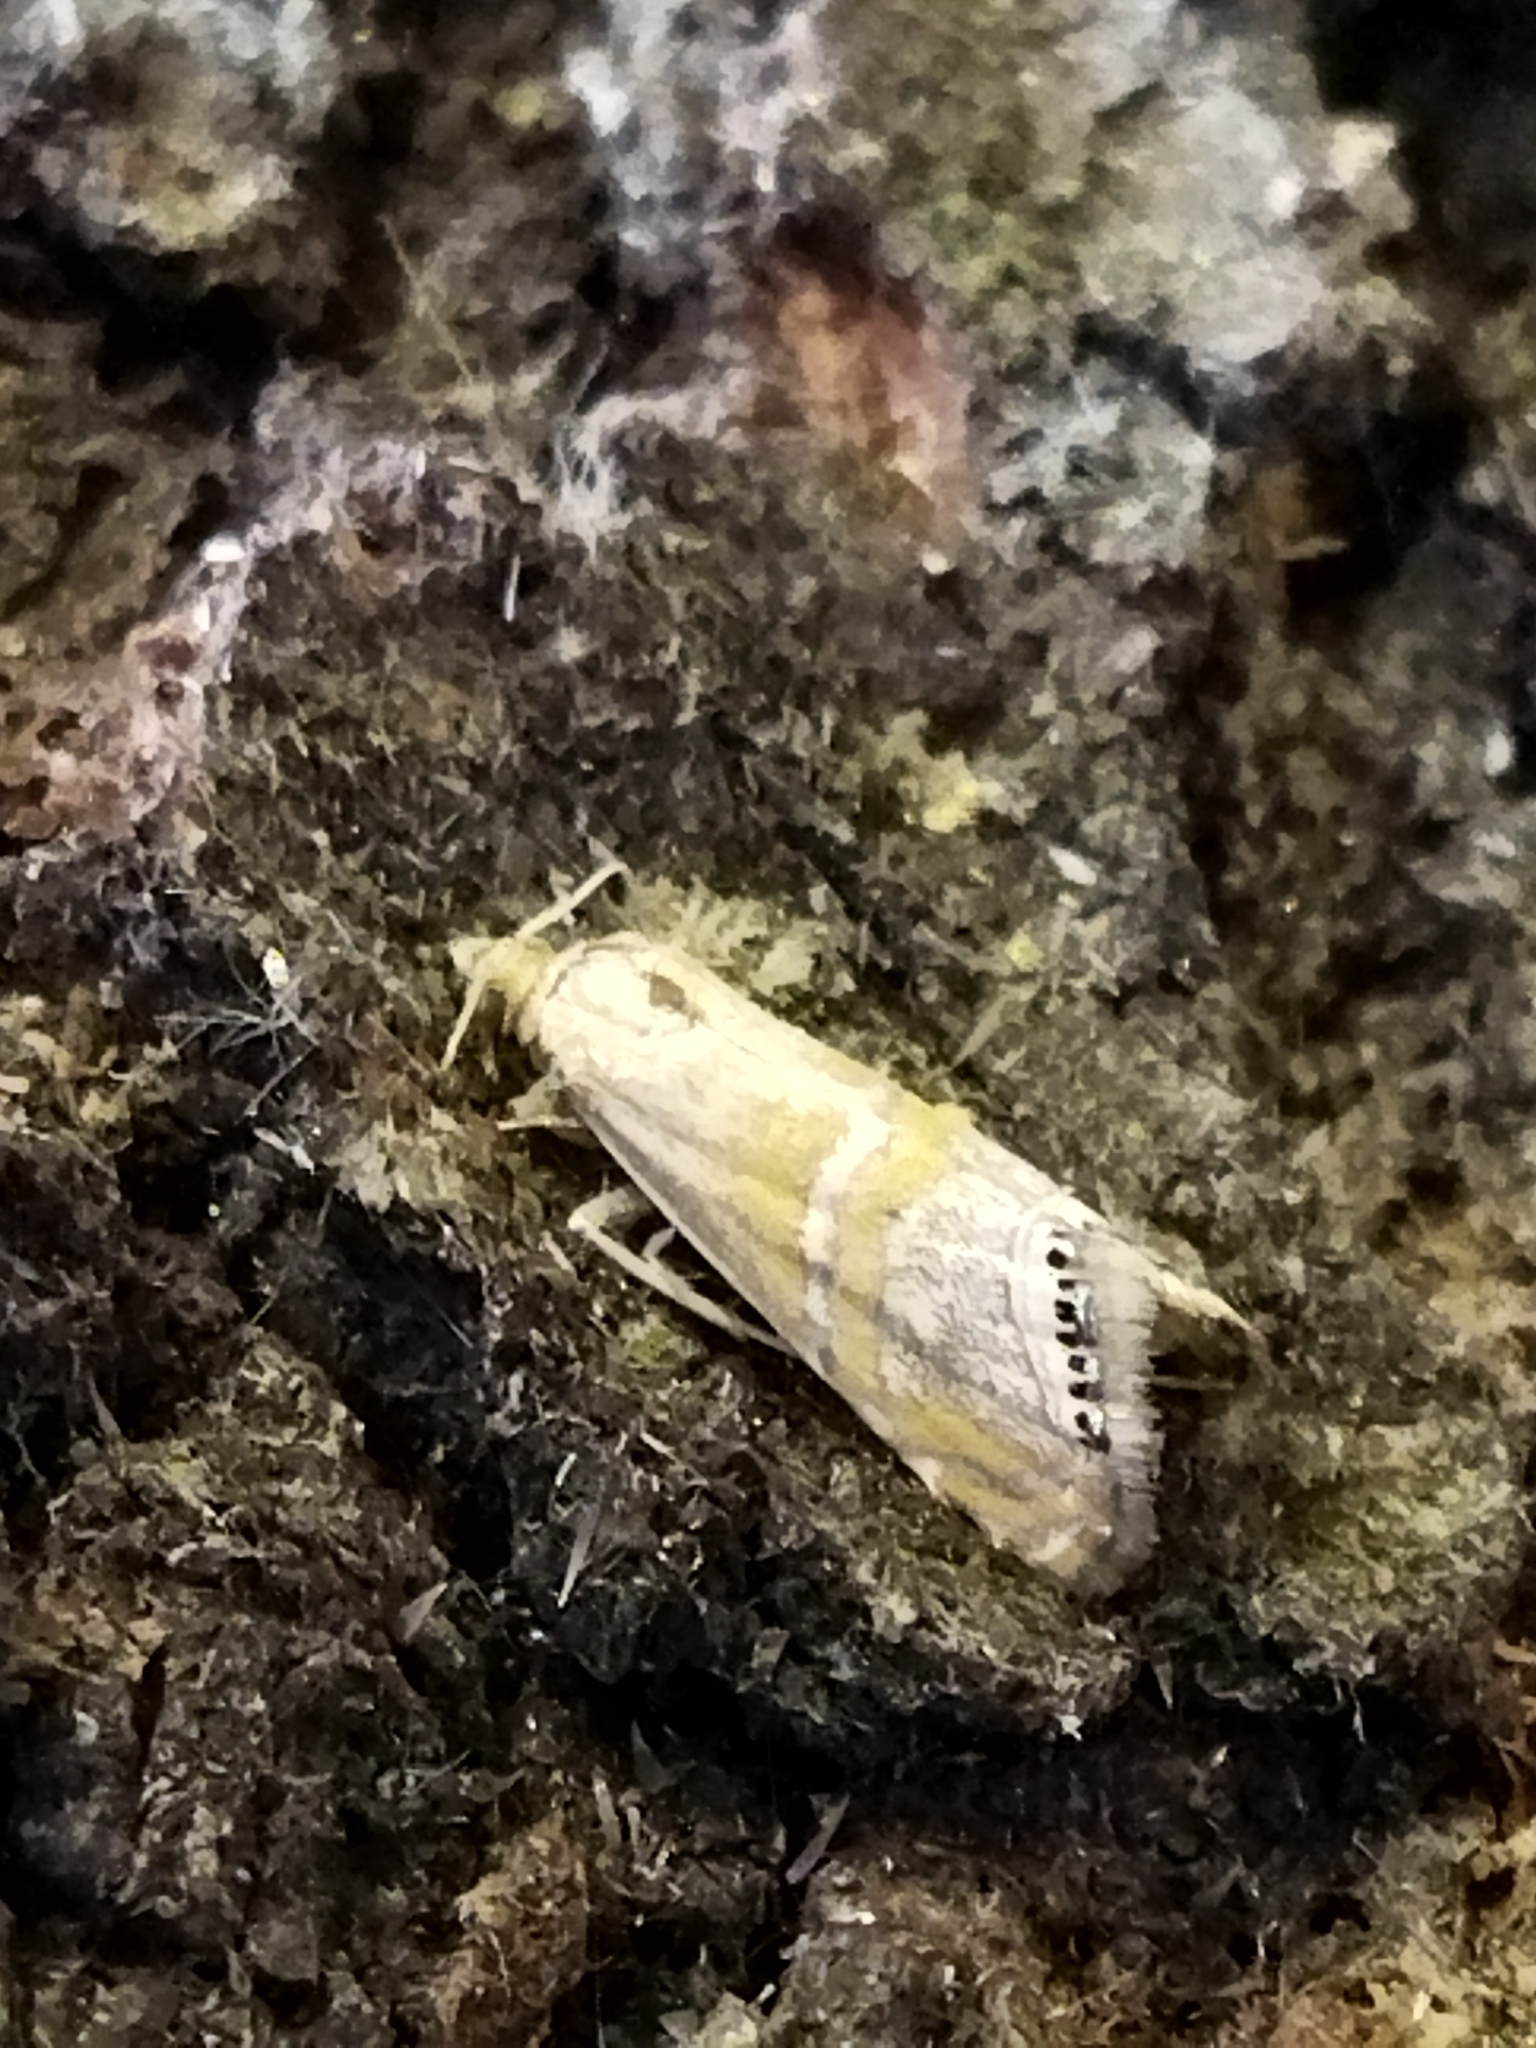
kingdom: Animalia
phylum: Arthropoda
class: Insecta
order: Lepidoptera
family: Crambidae
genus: Euchromius
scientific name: Euchromius bella
